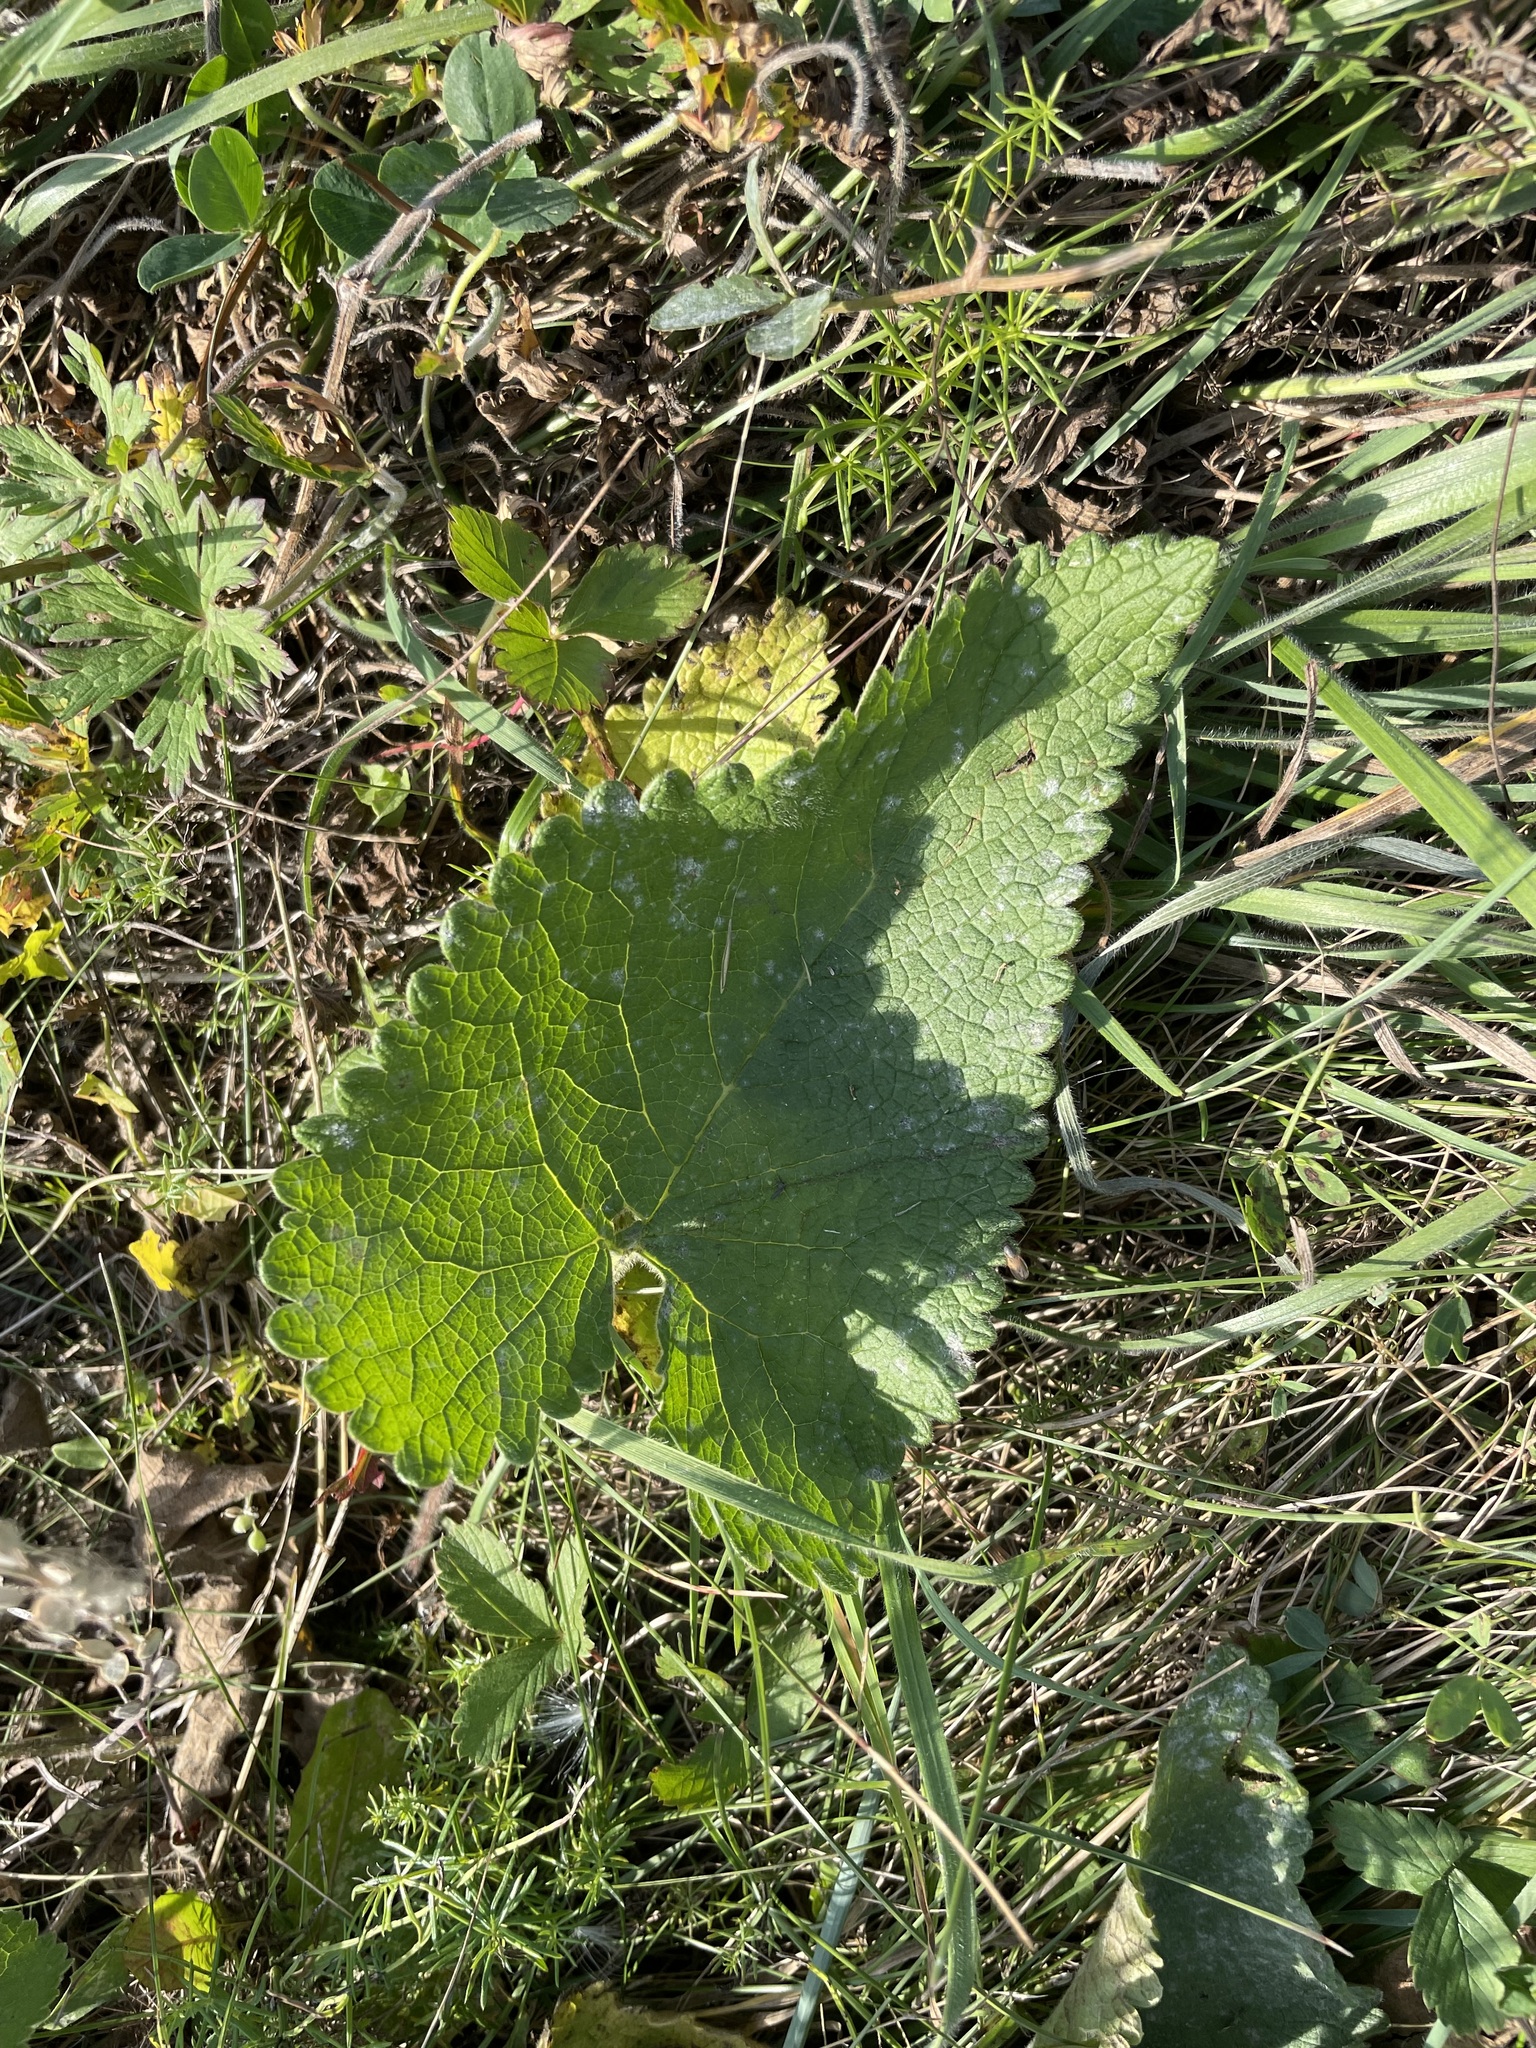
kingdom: Plantae
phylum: Tracheophyta
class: Magnoliopsida
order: Lamiales
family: Lamiaceae
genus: Phlomoides
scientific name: Phlomoides tuberosa
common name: Tuberous jerusalem sage
